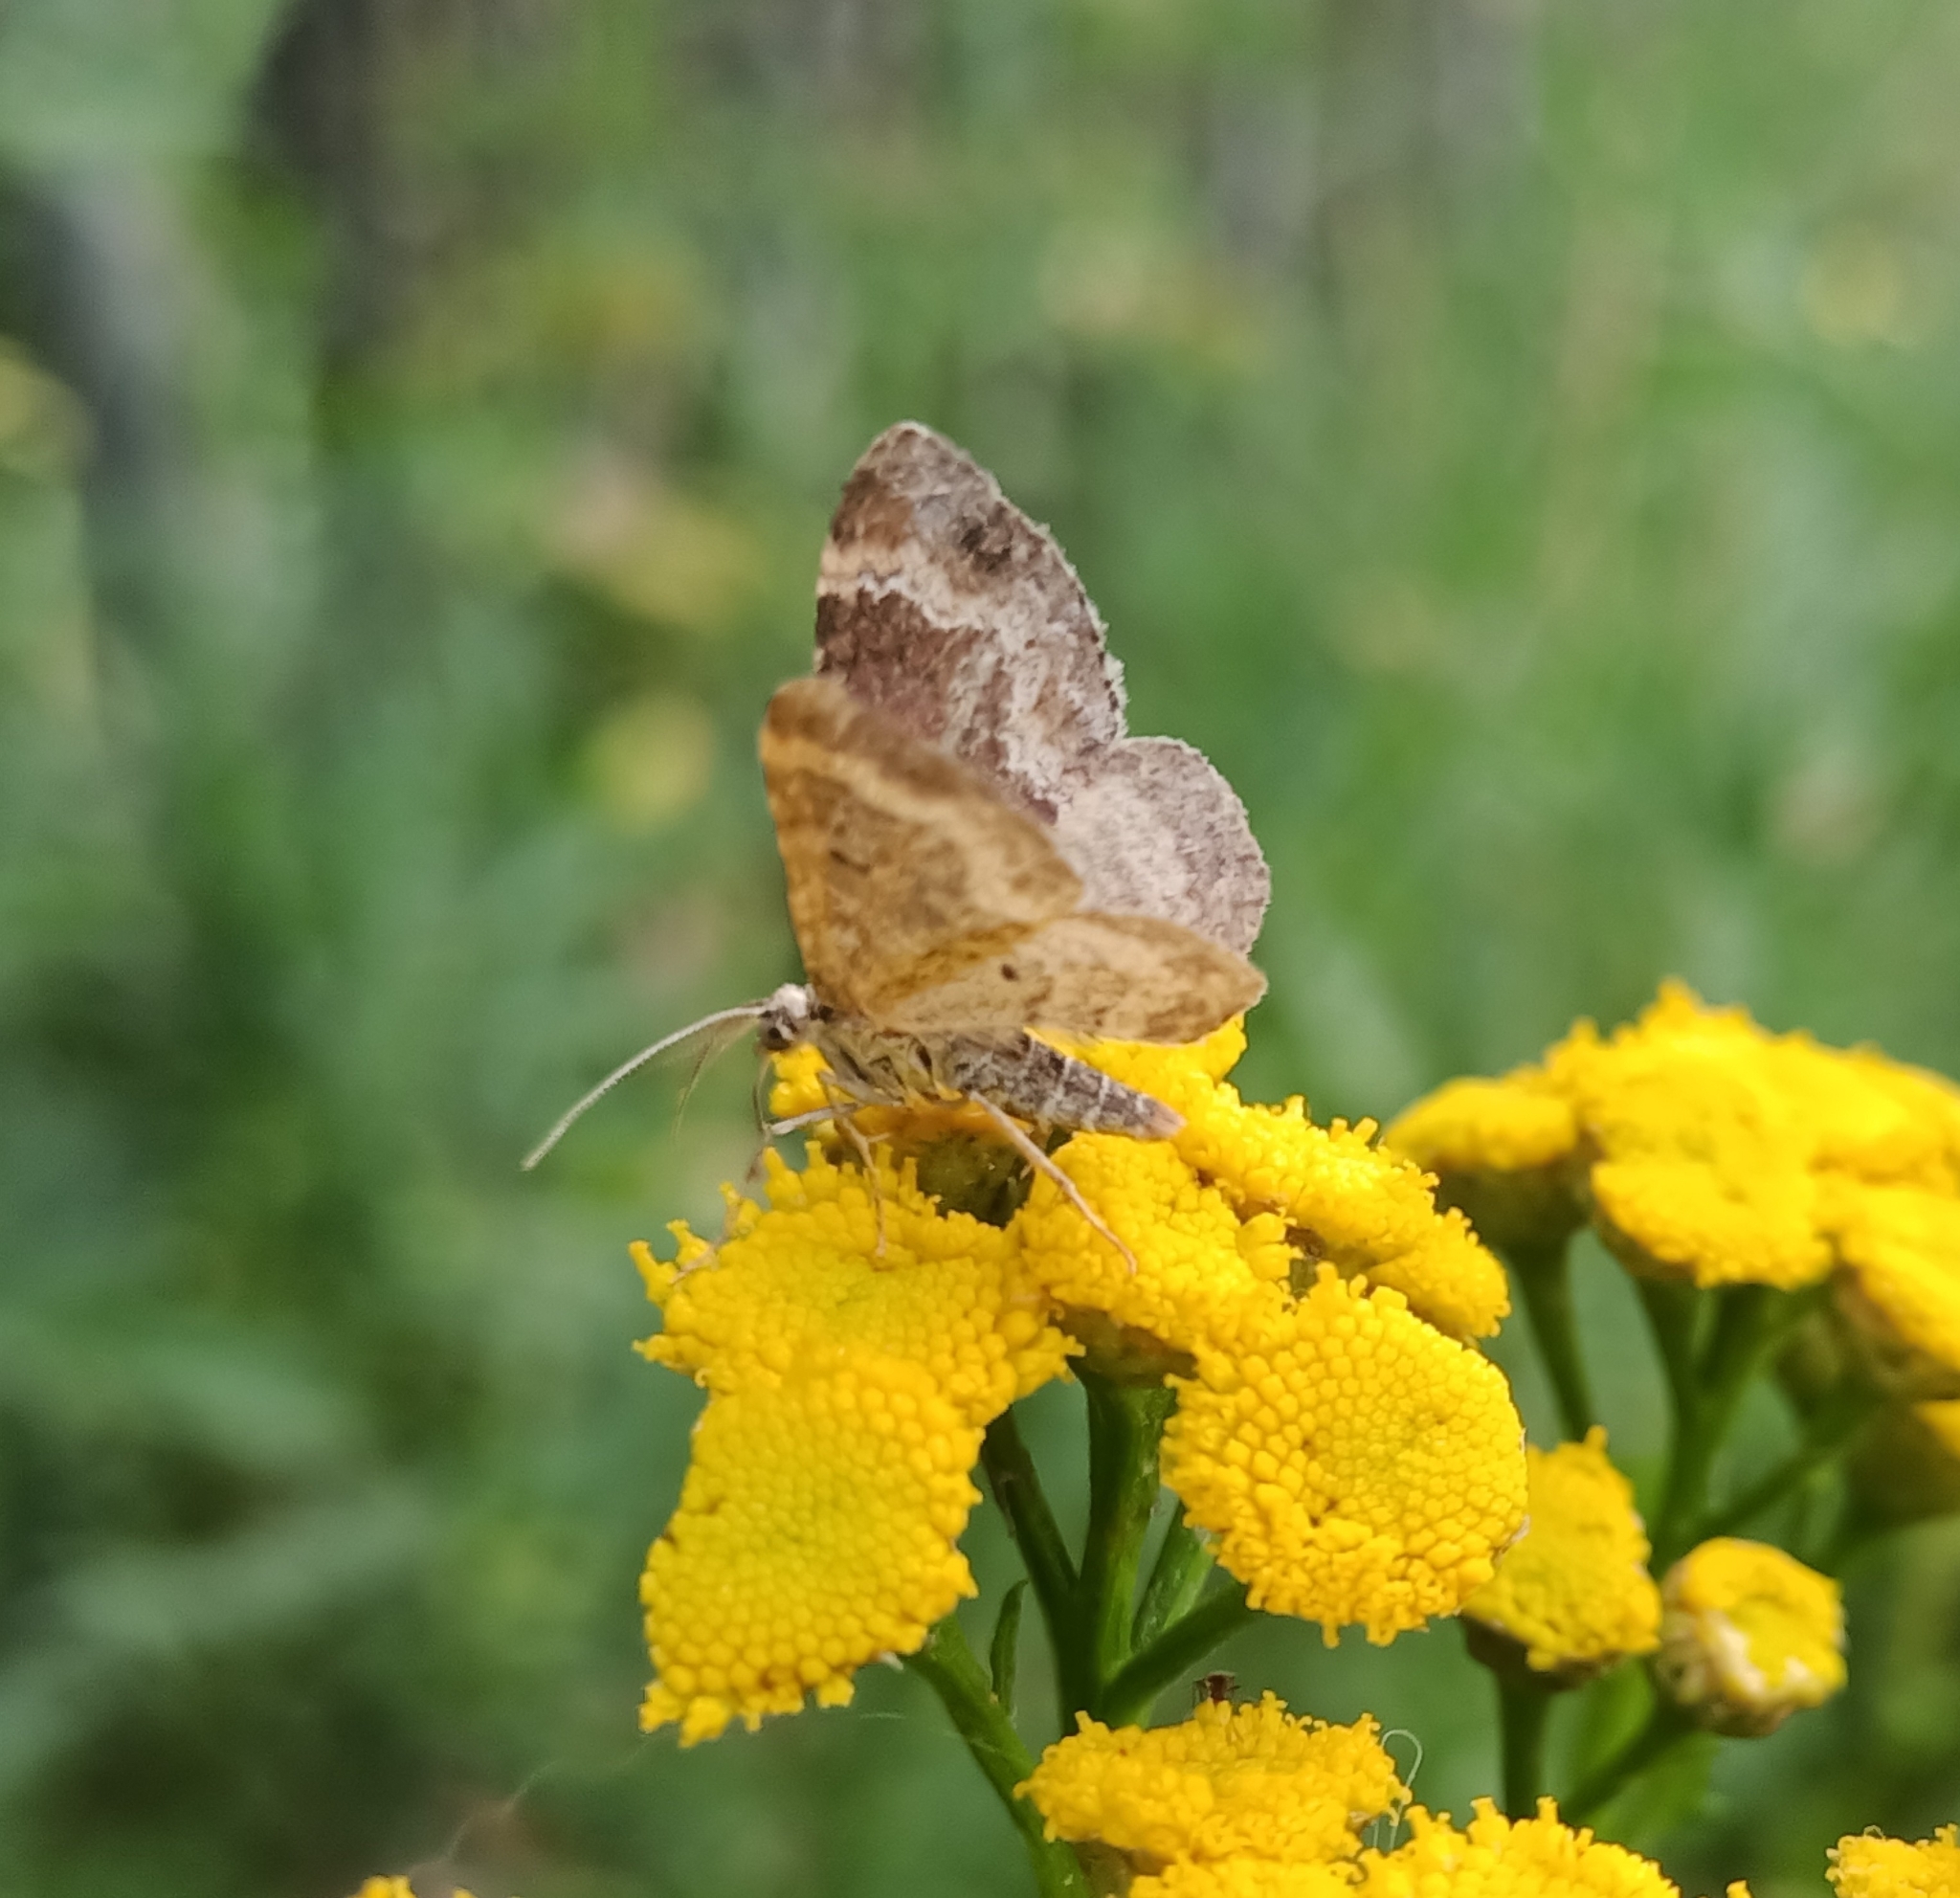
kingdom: Animalia
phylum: Arthropoda
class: Insecta
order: Lepidoptera
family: Geometridae
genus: Xanthorhoe
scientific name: Xanthorhoe ferrugata
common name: Dark-barred twin-spot carpet
